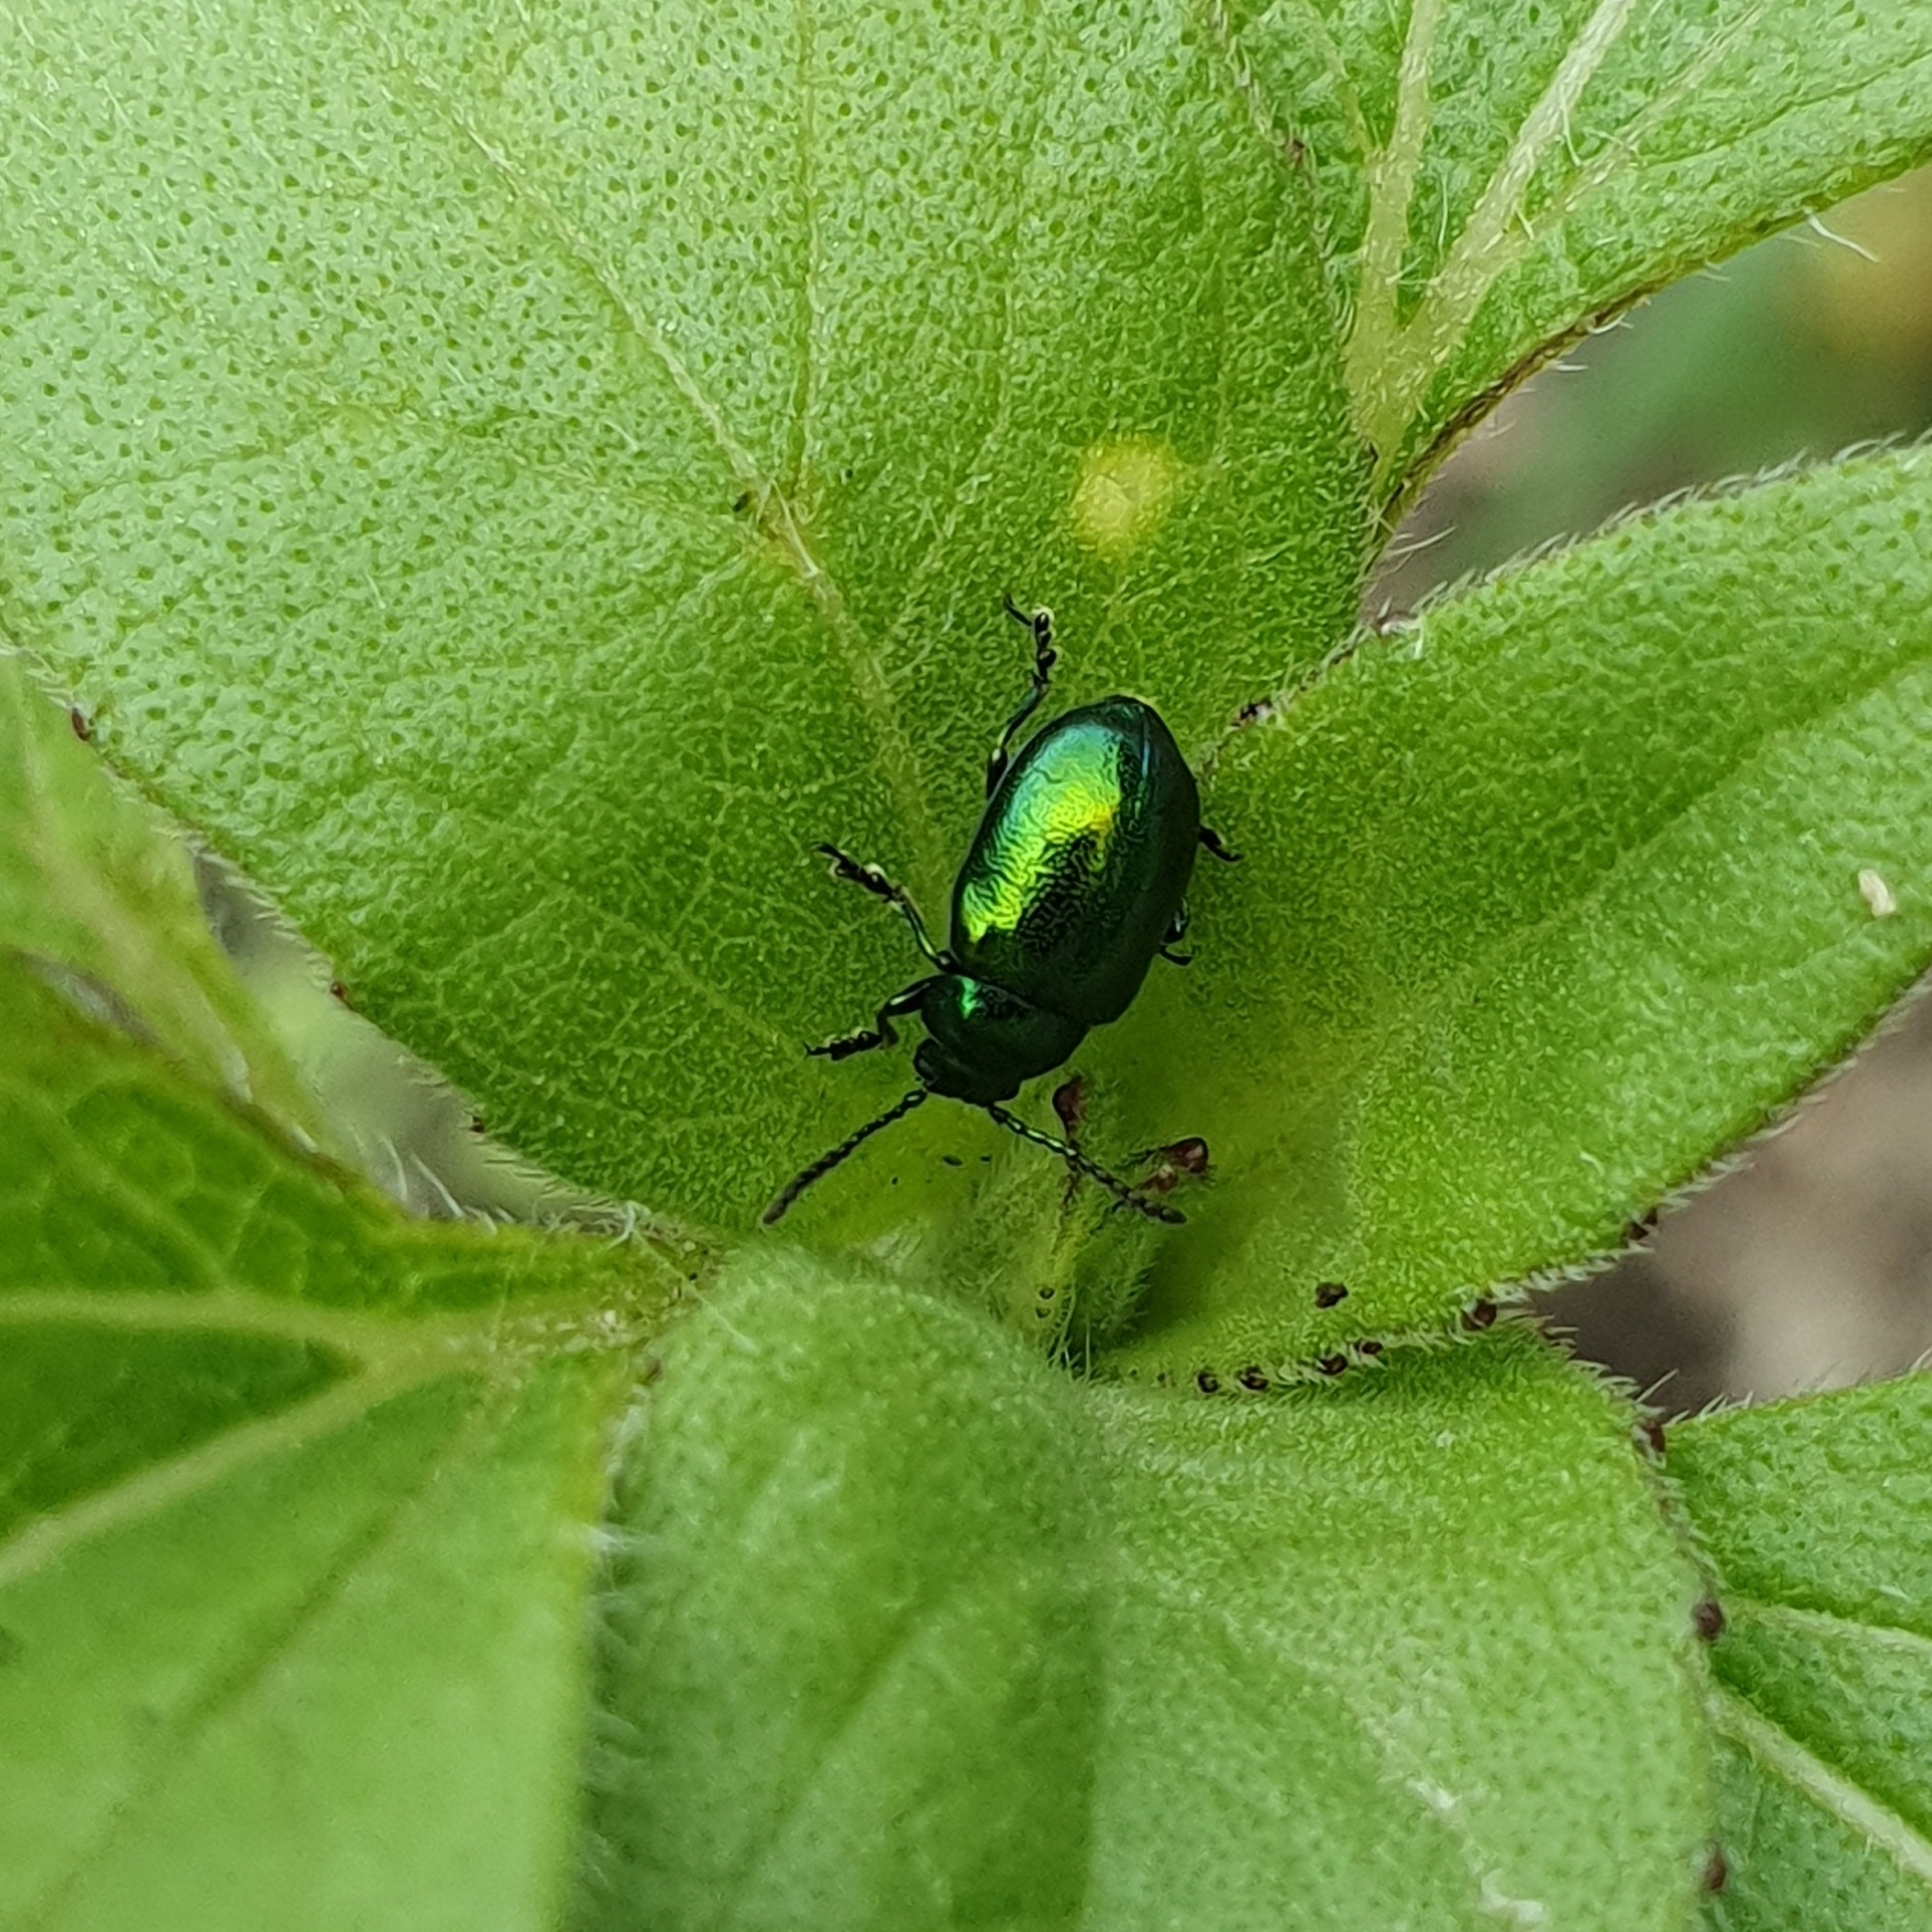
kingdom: Animalia
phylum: Arthropoda
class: Insecta
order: Coleoptera
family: Chrysomelidae
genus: Gastrophysa
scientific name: Gastrophysa viridula
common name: Green dock beetle
